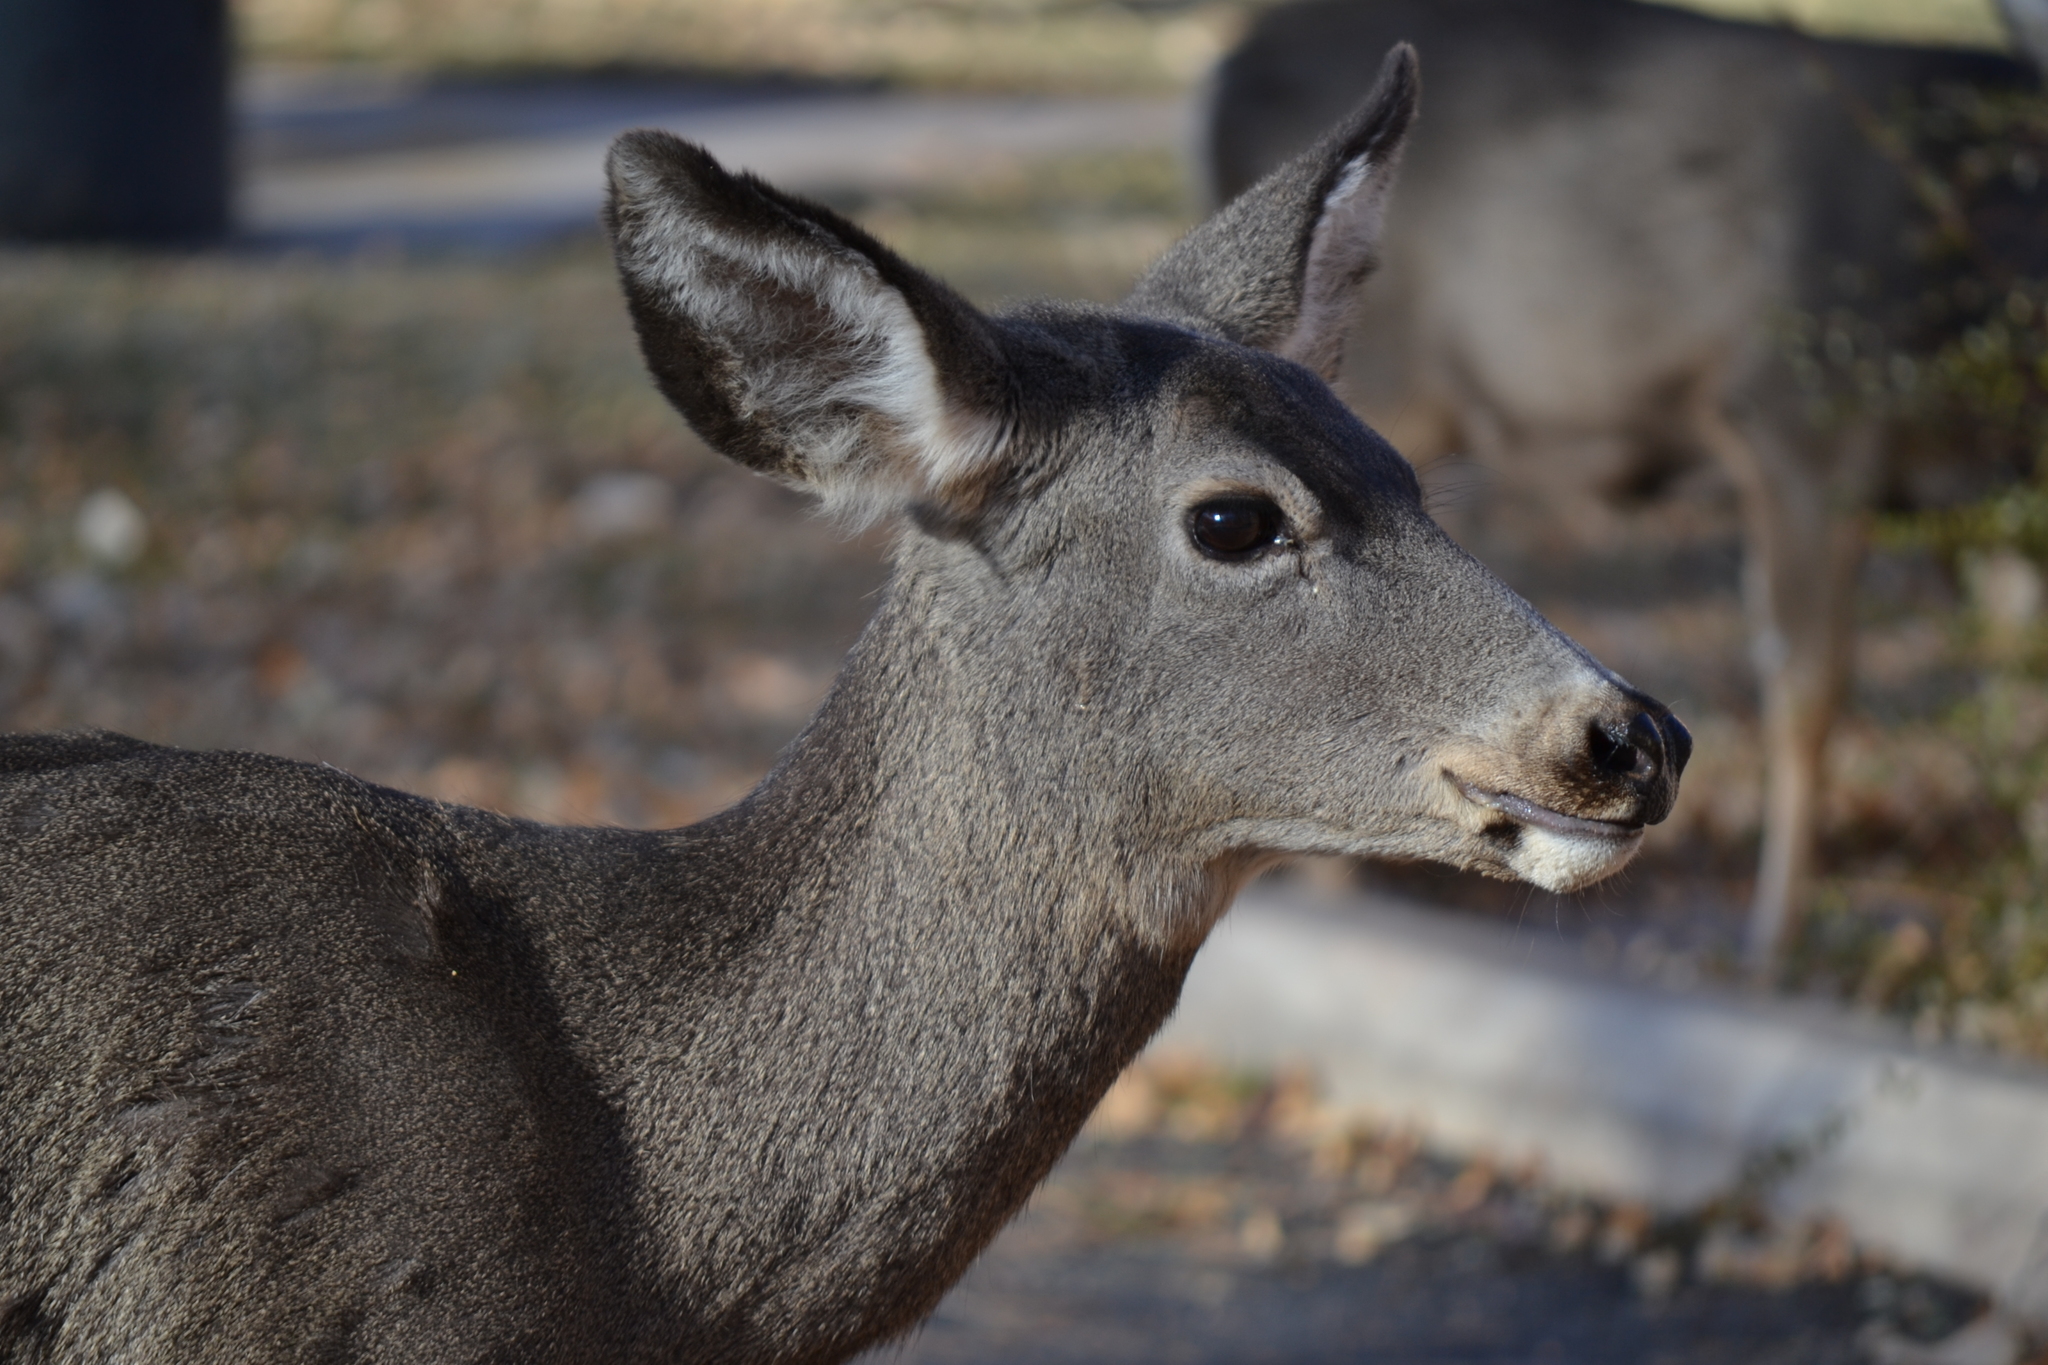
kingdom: Animalia
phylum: Chordata
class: Mammalia
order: Artiodactyla
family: Cervidae
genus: Odocoileus
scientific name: Odocoileus hemionus
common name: Mule deer
